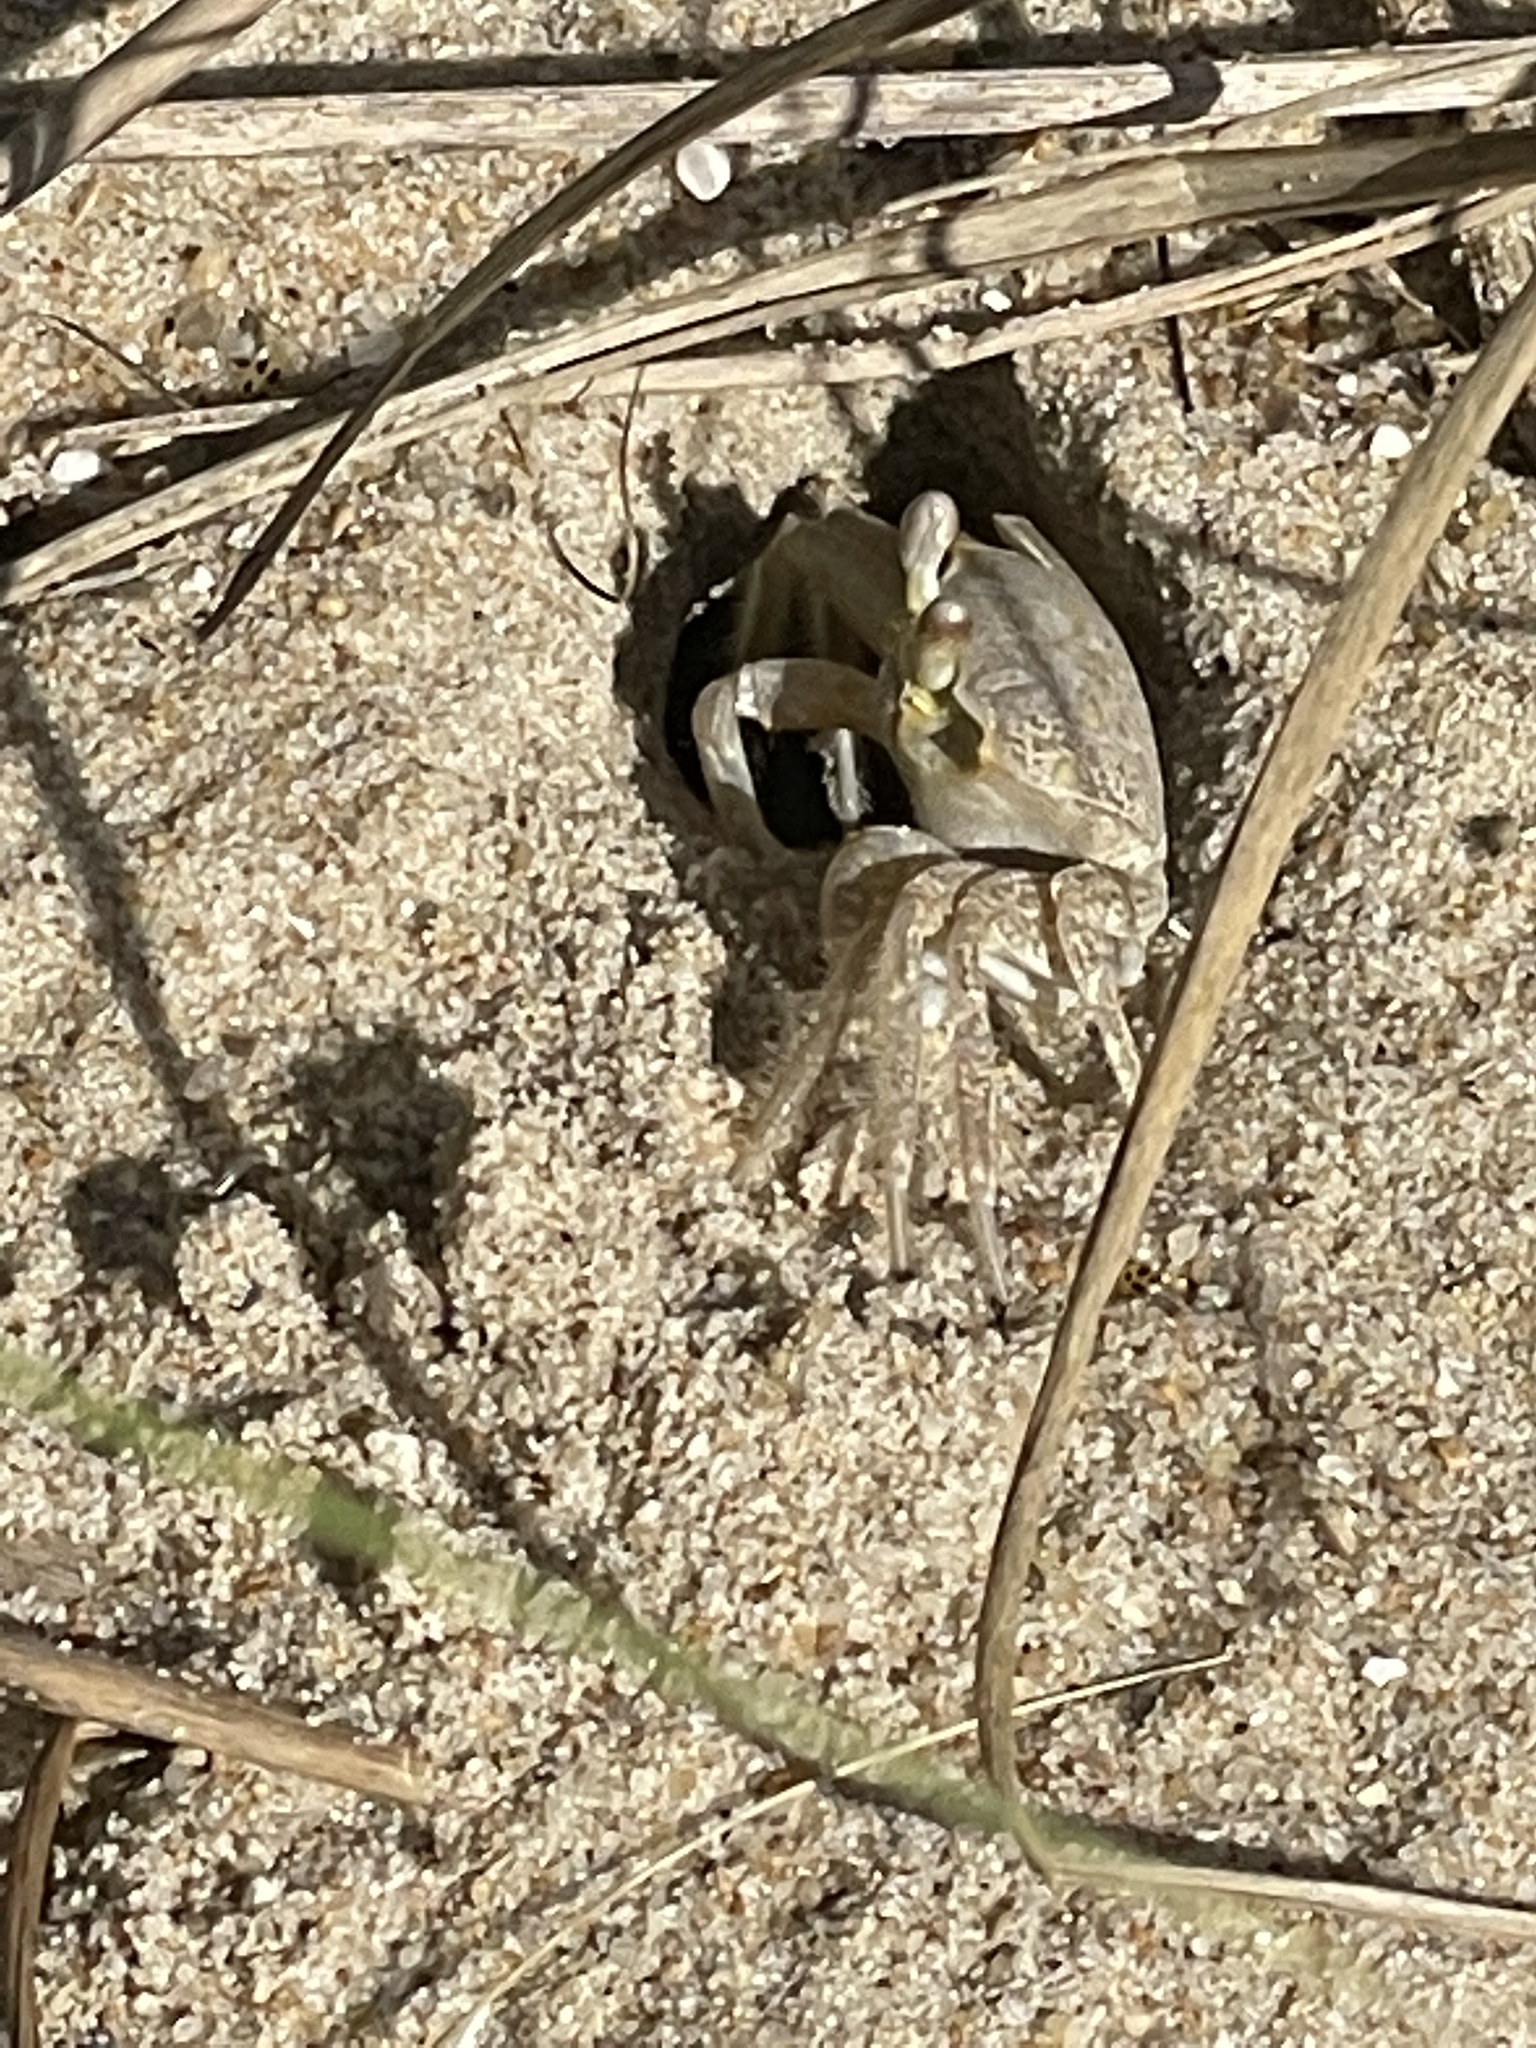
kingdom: Animalia
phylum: Arthropoda
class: Malacostraca
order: Decapoda
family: Ocypodidae
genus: Ocypode
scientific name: Ocypode quadrata
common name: Ghost crab
